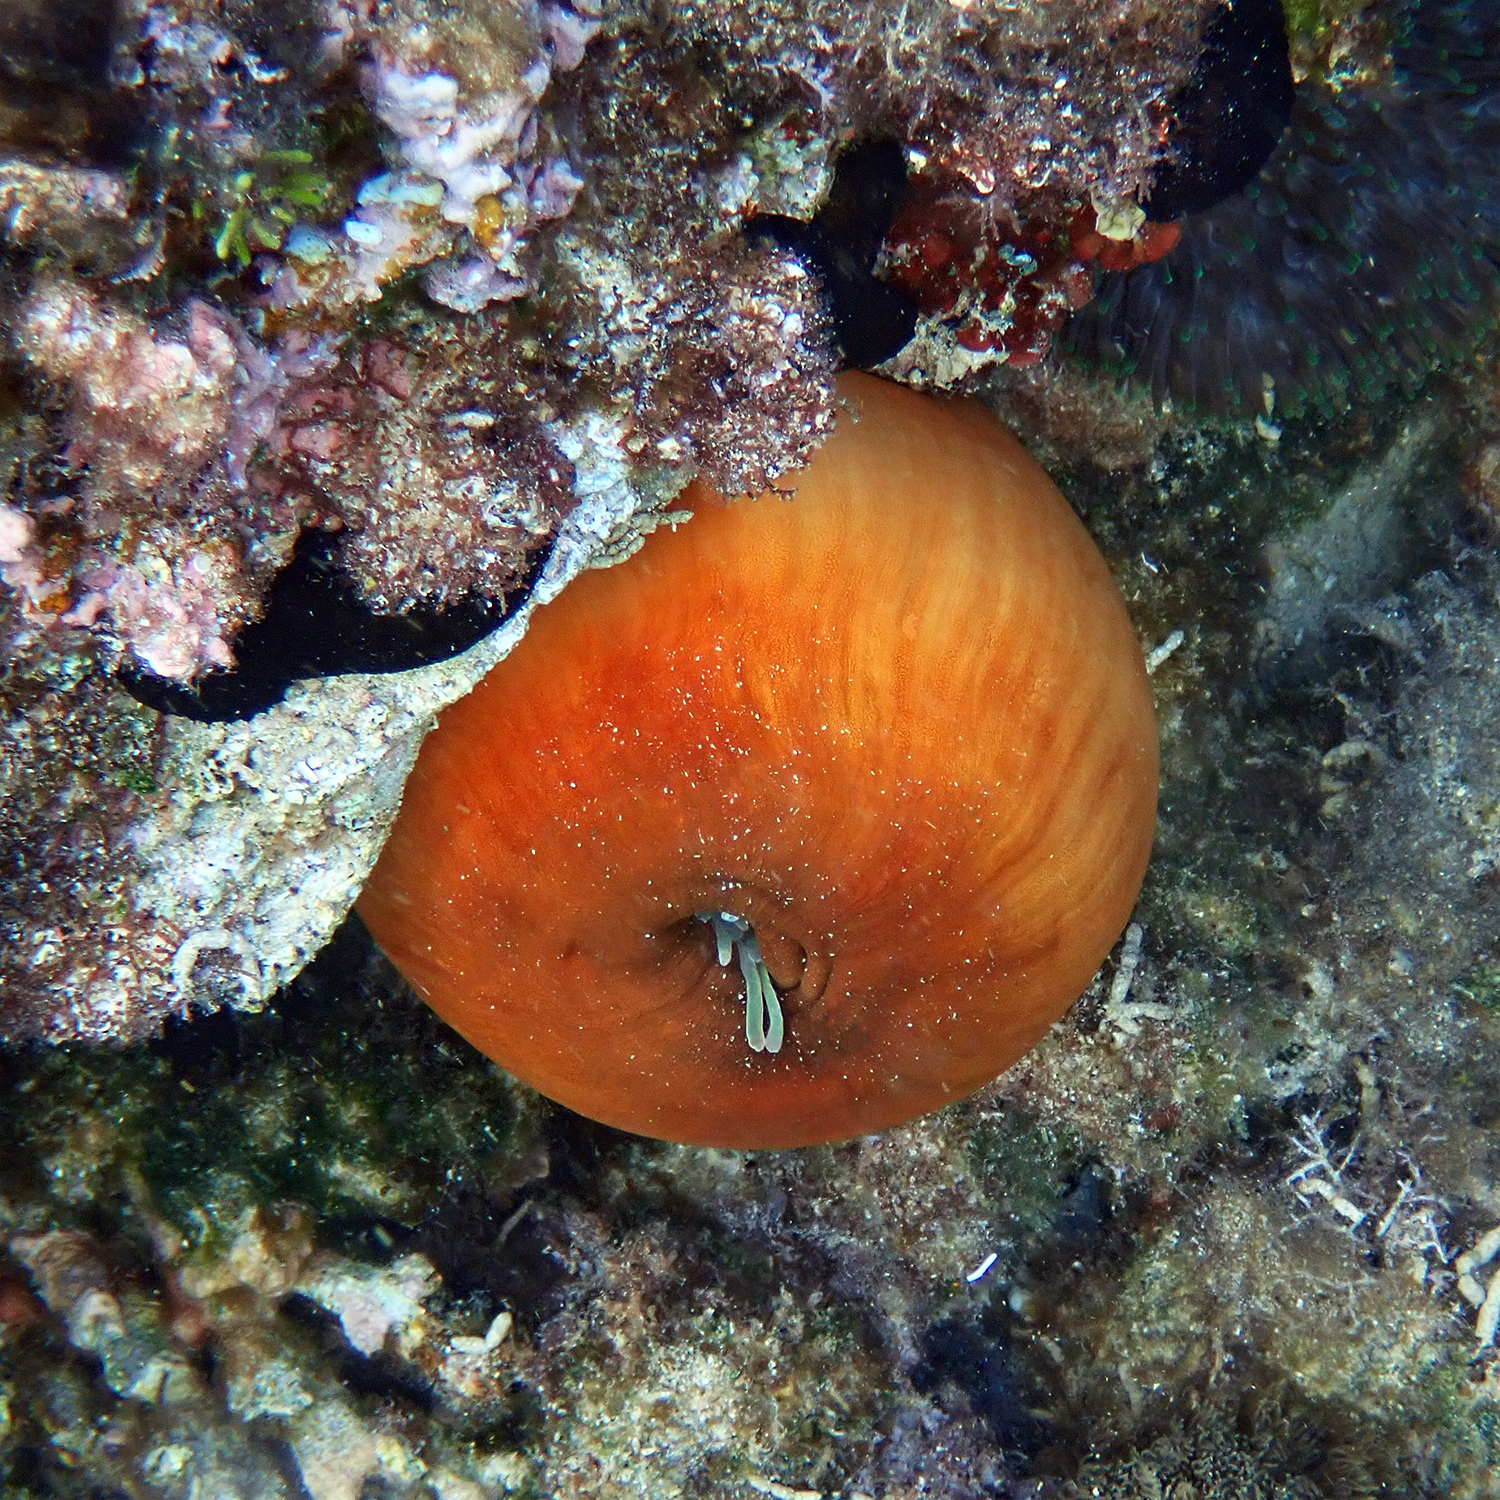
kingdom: Animalia
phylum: Cnidaria
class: Anthozoa
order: Actiniaria
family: Actiniidae
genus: Entacmaea
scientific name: Entacmaea quadricolor
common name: Bulb tentacle sea anemone
